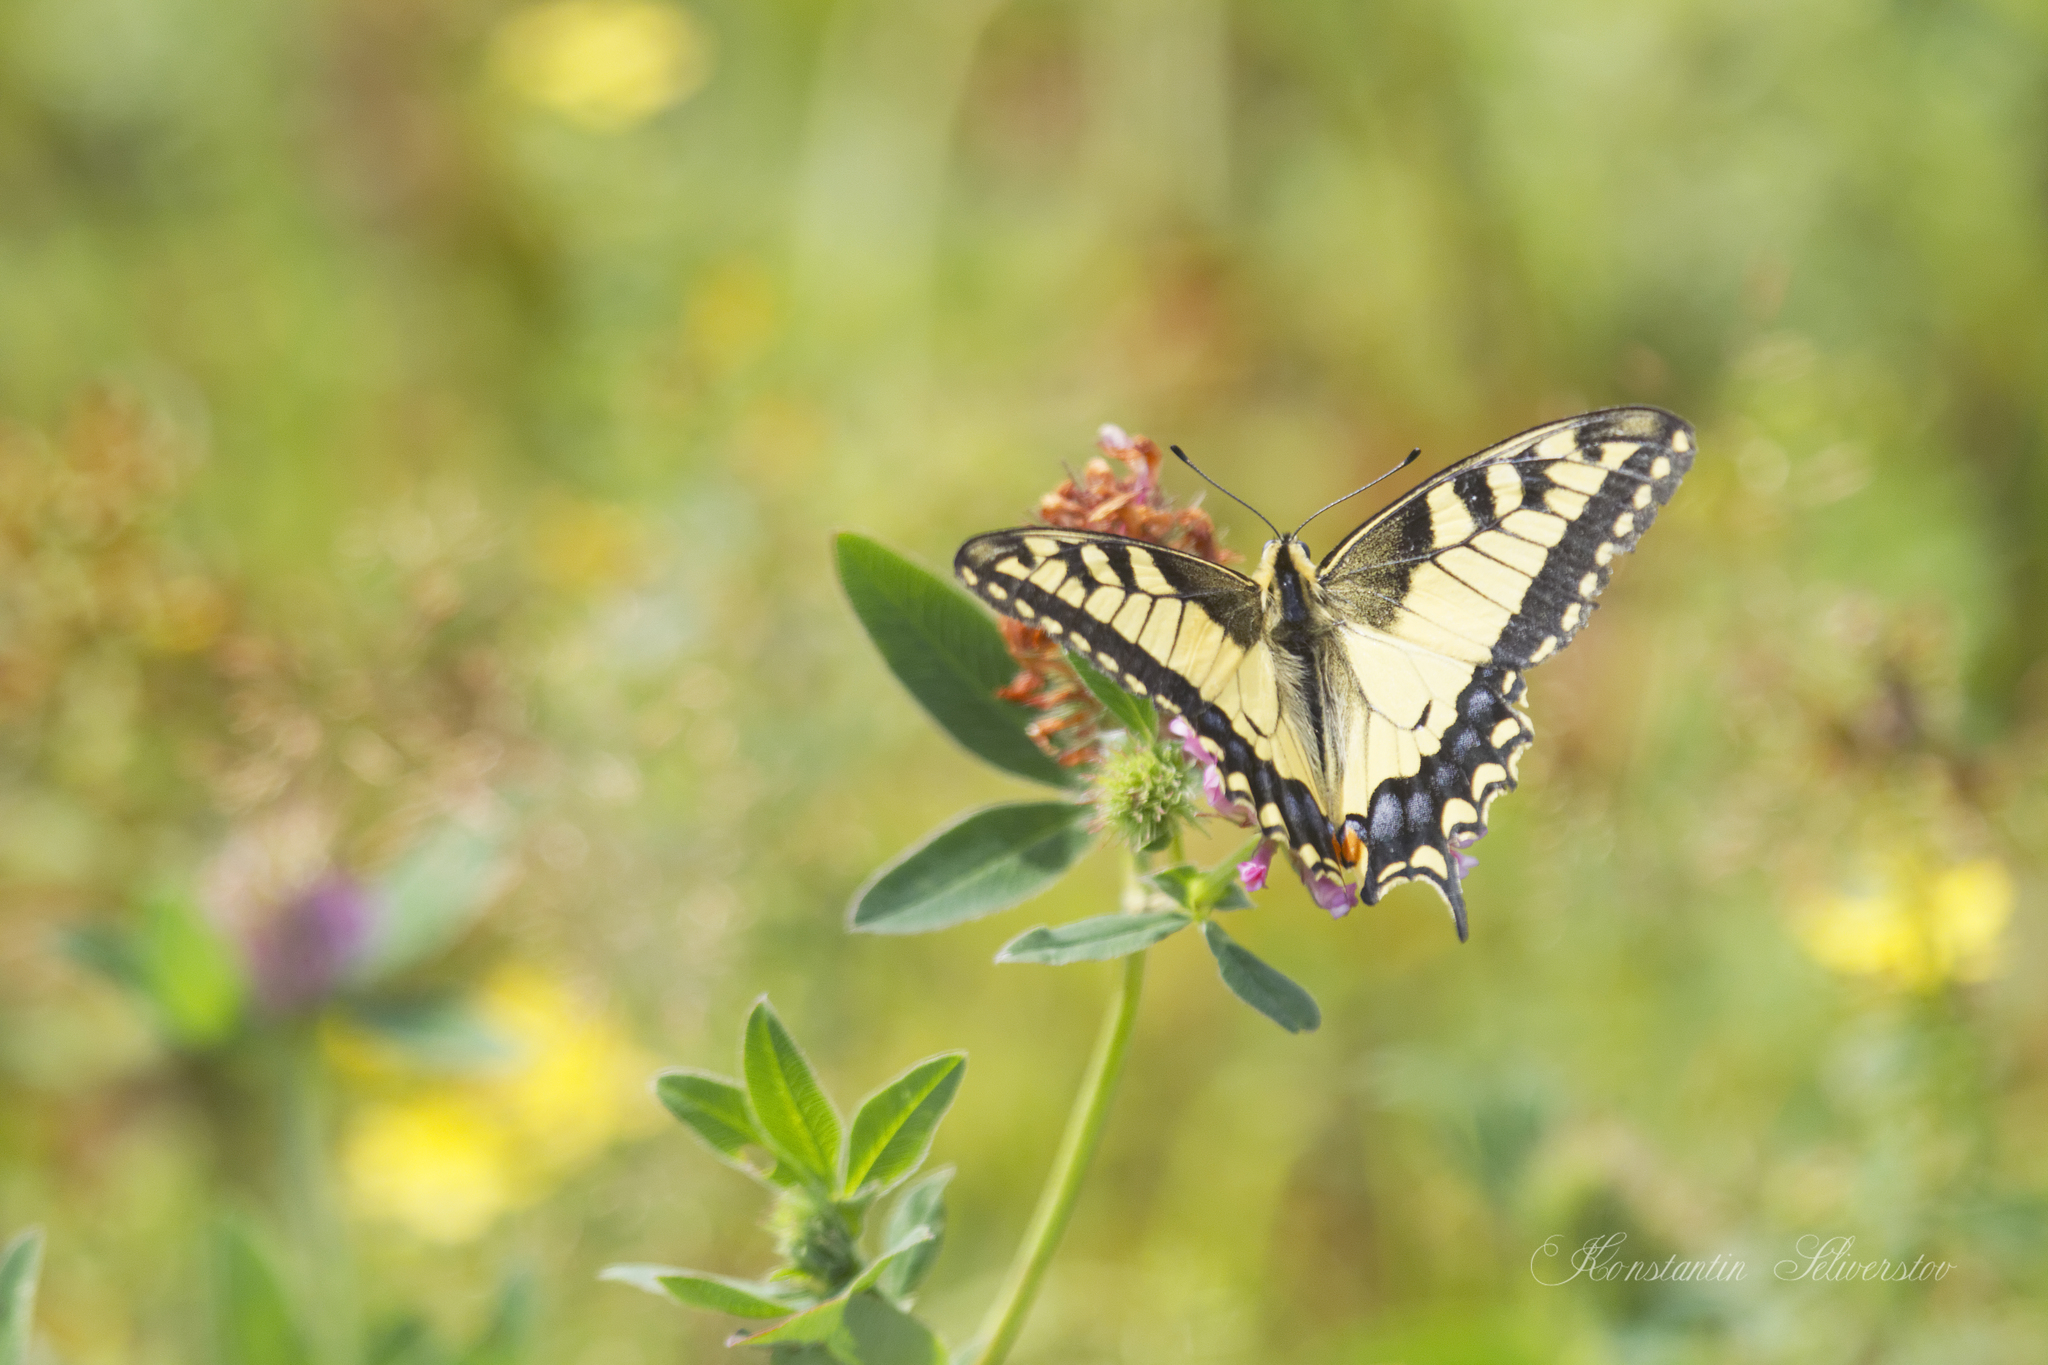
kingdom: Animalia
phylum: Arthropoda
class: Insecta
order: Lepidoptera
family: Papilionidae
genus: Papilio
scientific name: Papilio machaon
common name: Swallowtail
